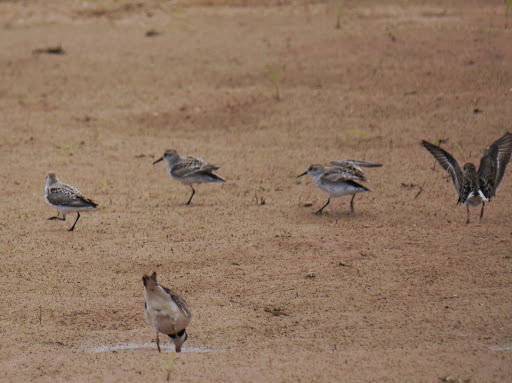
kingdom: Animalia
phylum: Chordata
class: Aves
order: Charadriiformes
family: Scolopacidae
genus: Calidris
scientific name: Calidris mauri
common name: Western sandpiper
